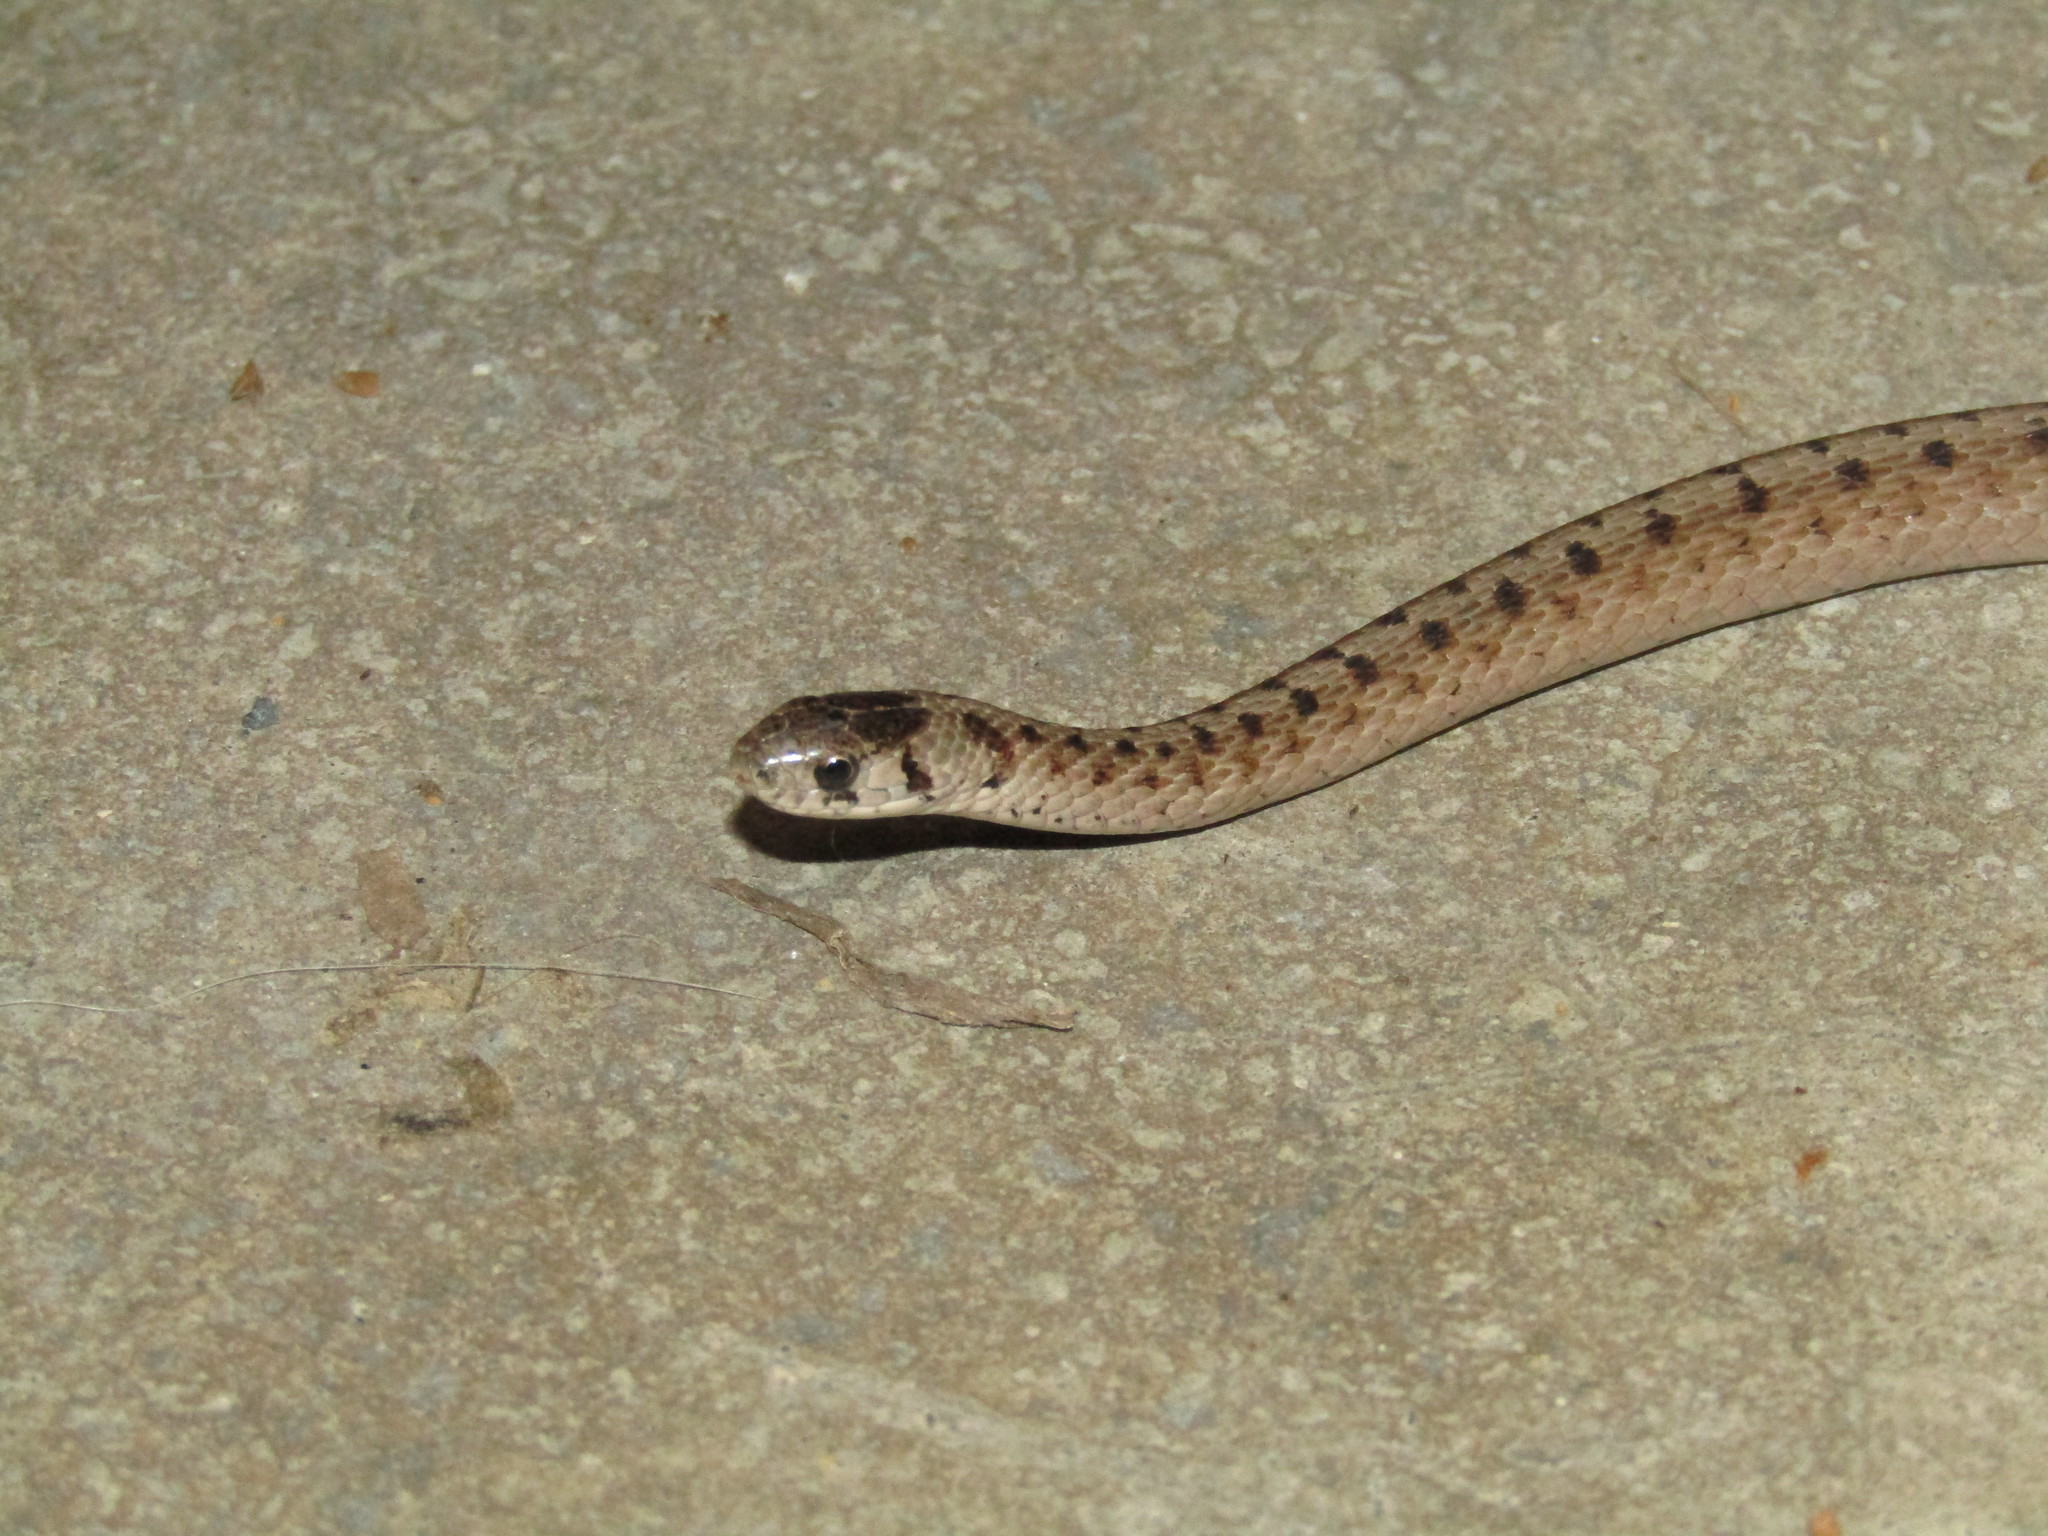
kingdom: Animalia
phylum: Chordata
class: Squamata
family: Colubridae
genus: Storeria
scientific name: Storeria dekayi
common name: (dekay’s) brown snake
